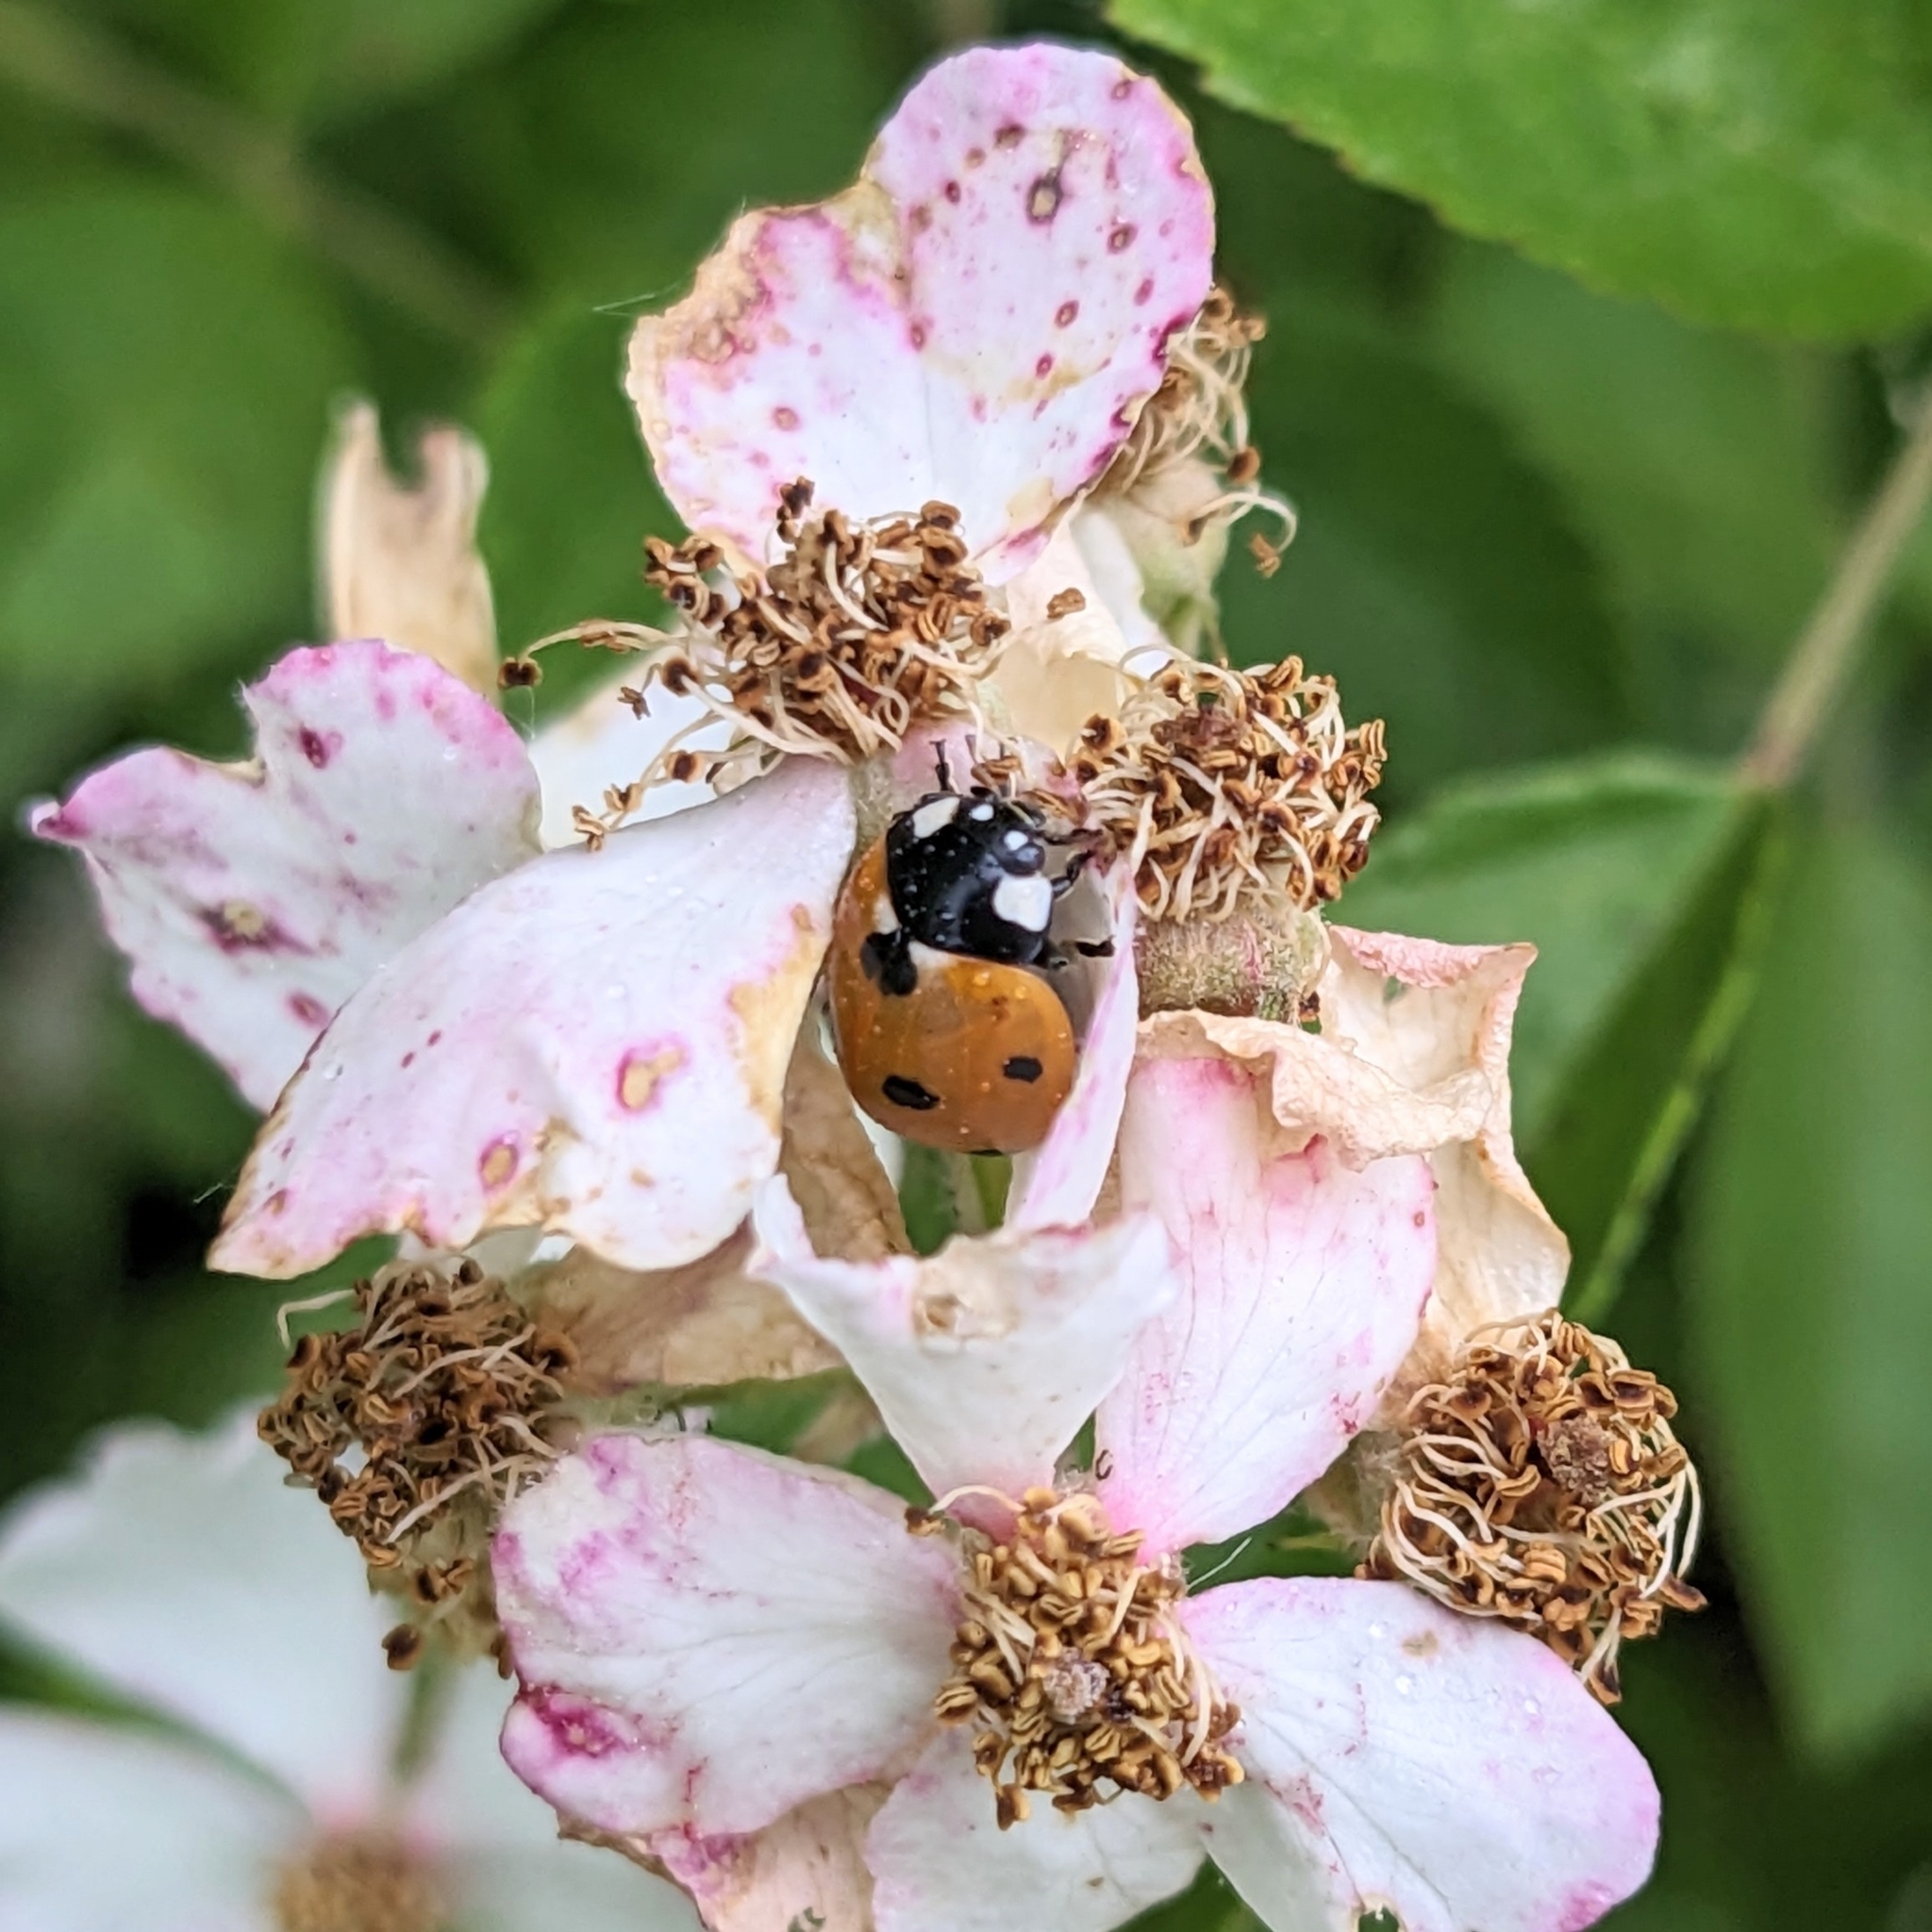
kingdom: Animalia
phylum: Arthropoda
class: Insecta
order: Coleoptera
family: Coccinellidae
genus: Coccinella
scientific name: Coccinella septempunctata
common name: Sevenspotted lady beetle
